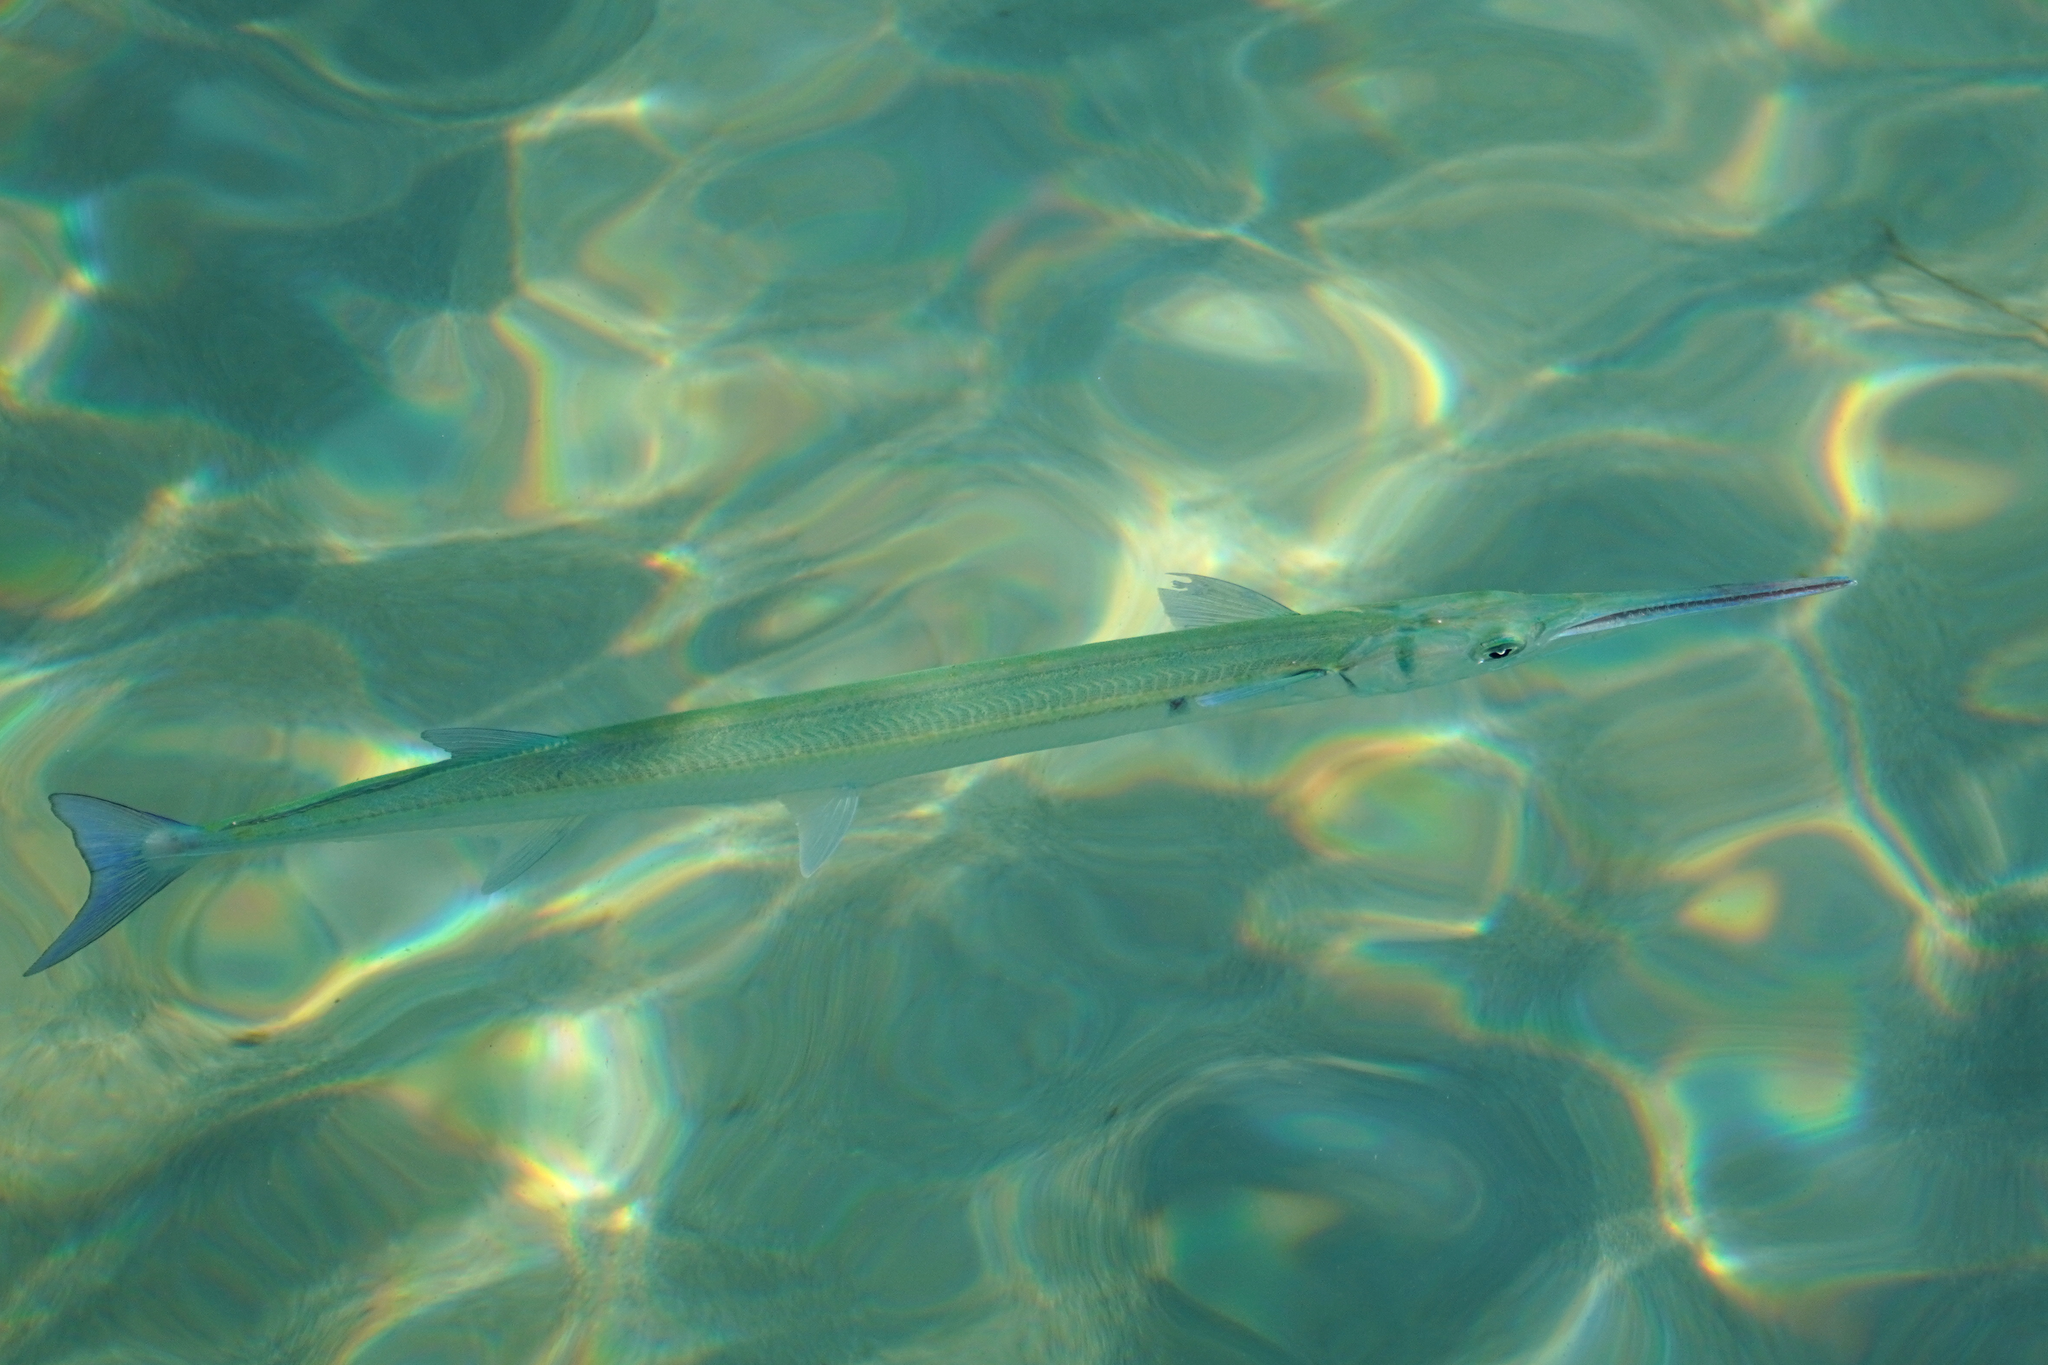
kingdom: Animalia
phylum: Chordata
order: Beloniformes
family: Belonidae
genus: Tylosurus
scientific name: Tylosurus crocodilus
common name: Houndfish
